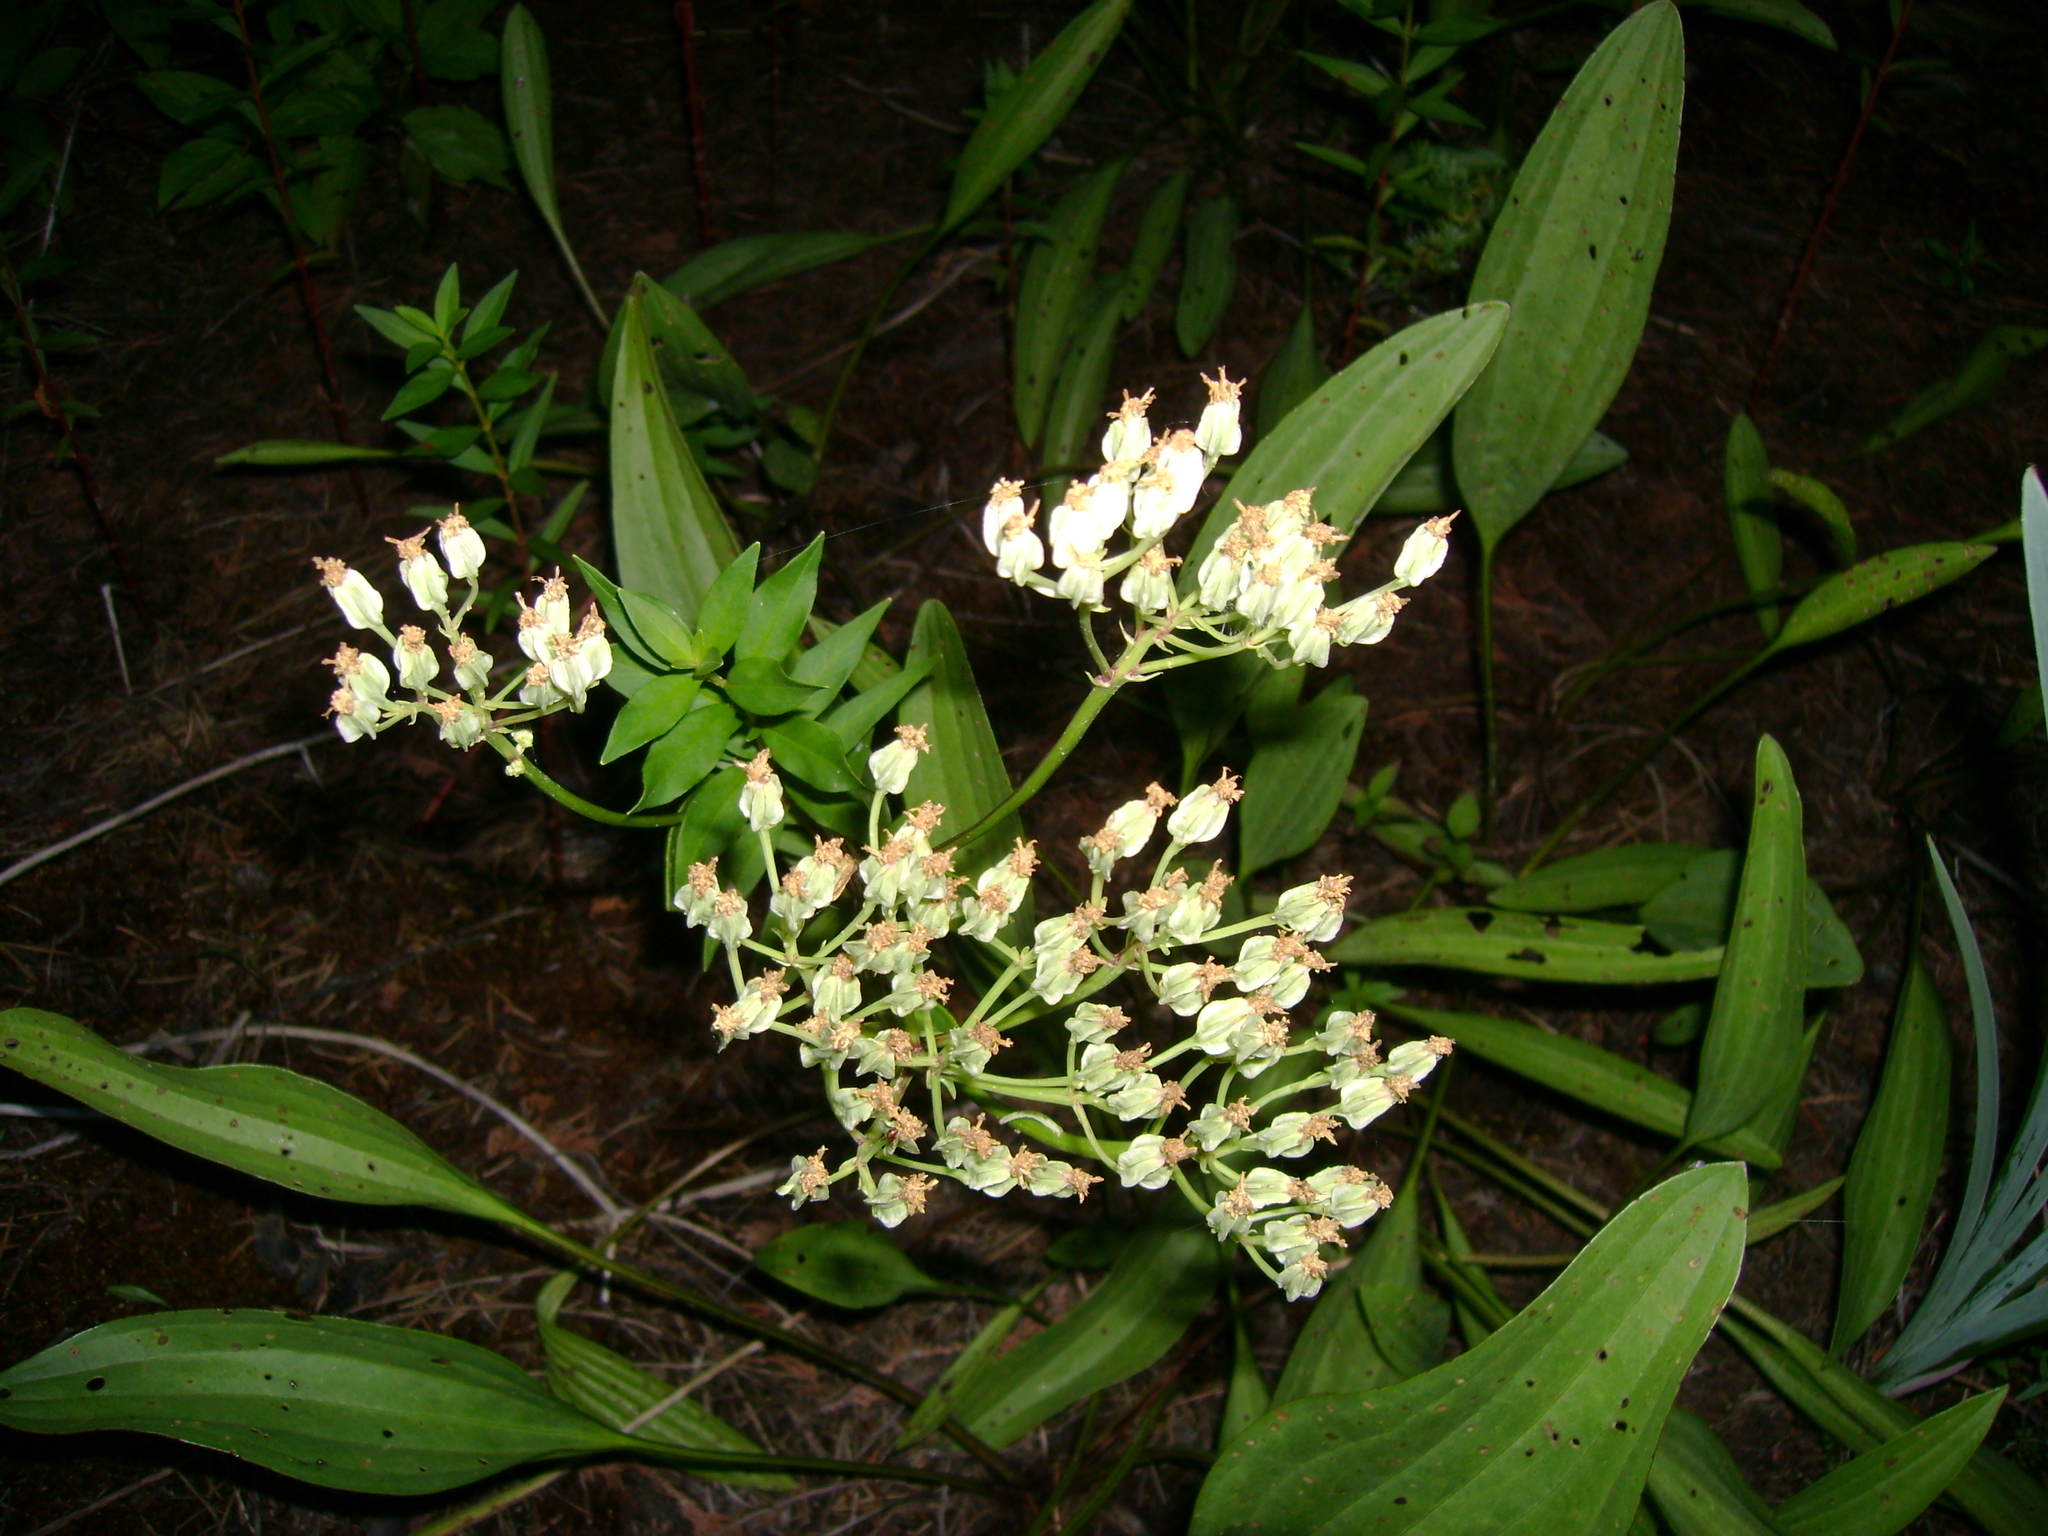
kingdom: Plantae
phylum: Tracheophyta
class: Magnoliopsida
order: Asterales
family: Asteraceae
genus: Arnoglossum
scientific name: Arnoglossum plantagineum
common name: Groove-stemmed indian-plantain
